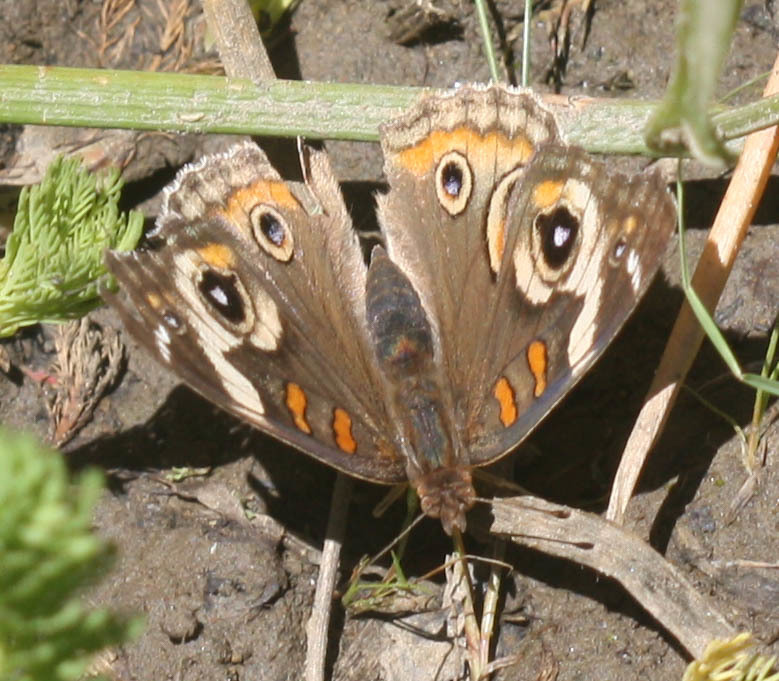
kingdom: Animalia
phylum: Arthropoda
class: Insecta
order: Lepidoptera
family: Nymphalidae
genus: Junonia
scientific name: Junonia grisea
